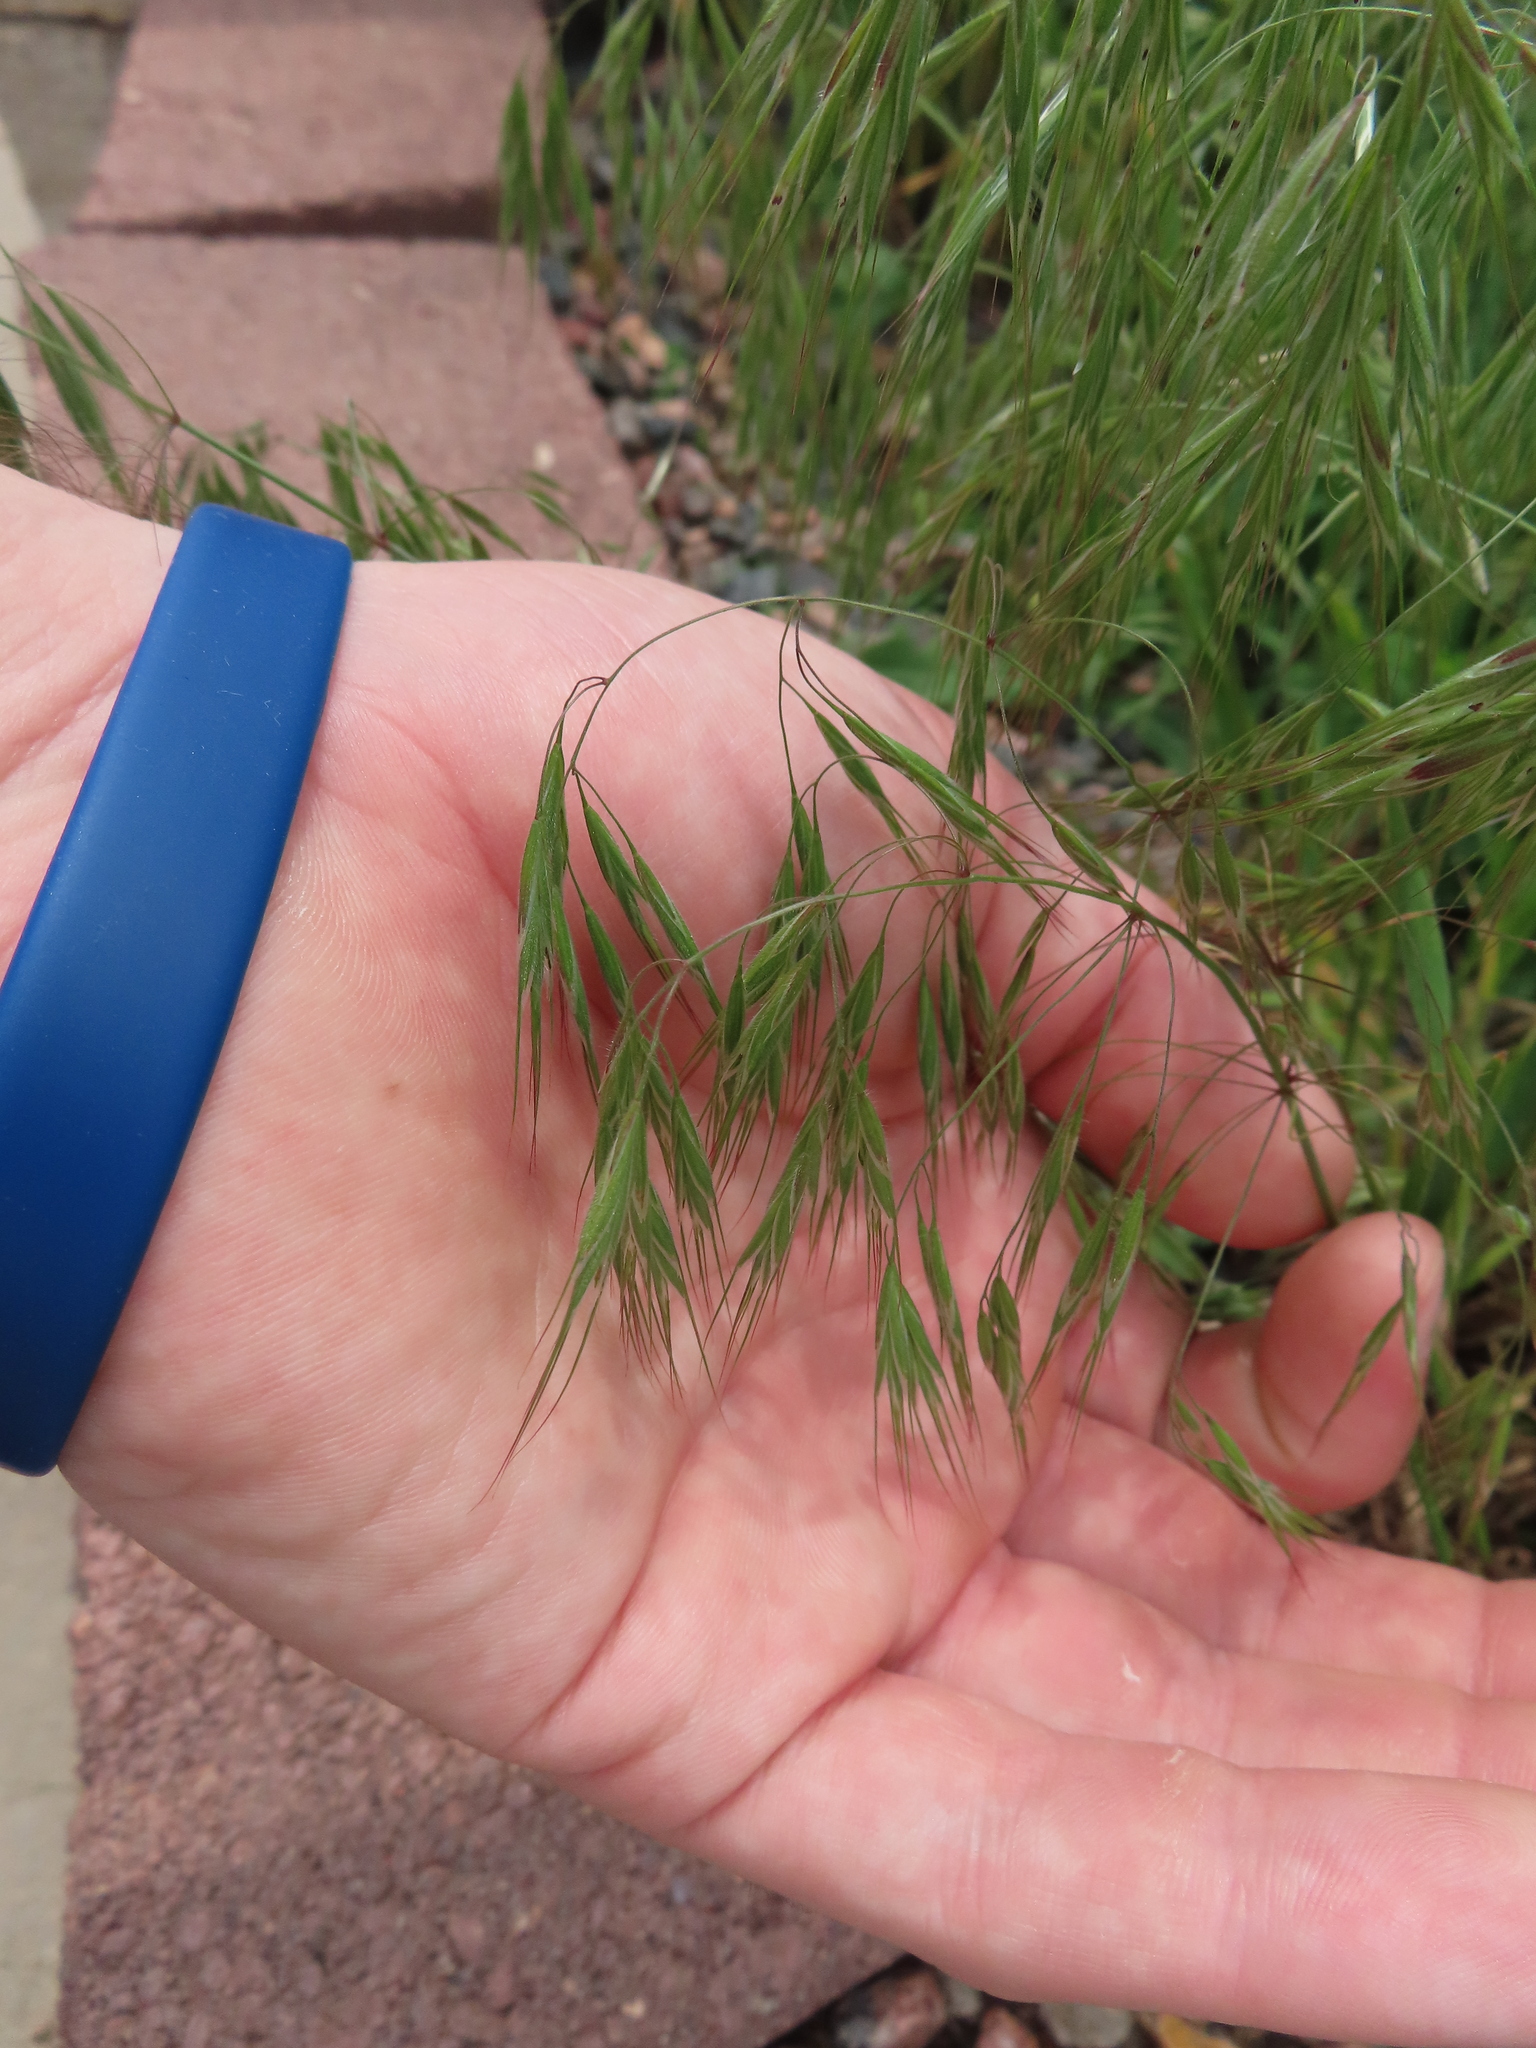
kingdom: Plantae
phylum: Tracheophyta
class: Liliopsida
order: Poales
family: Poaceae
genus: Bromus
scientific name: Bromus tectorum
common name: Cheatgrass
